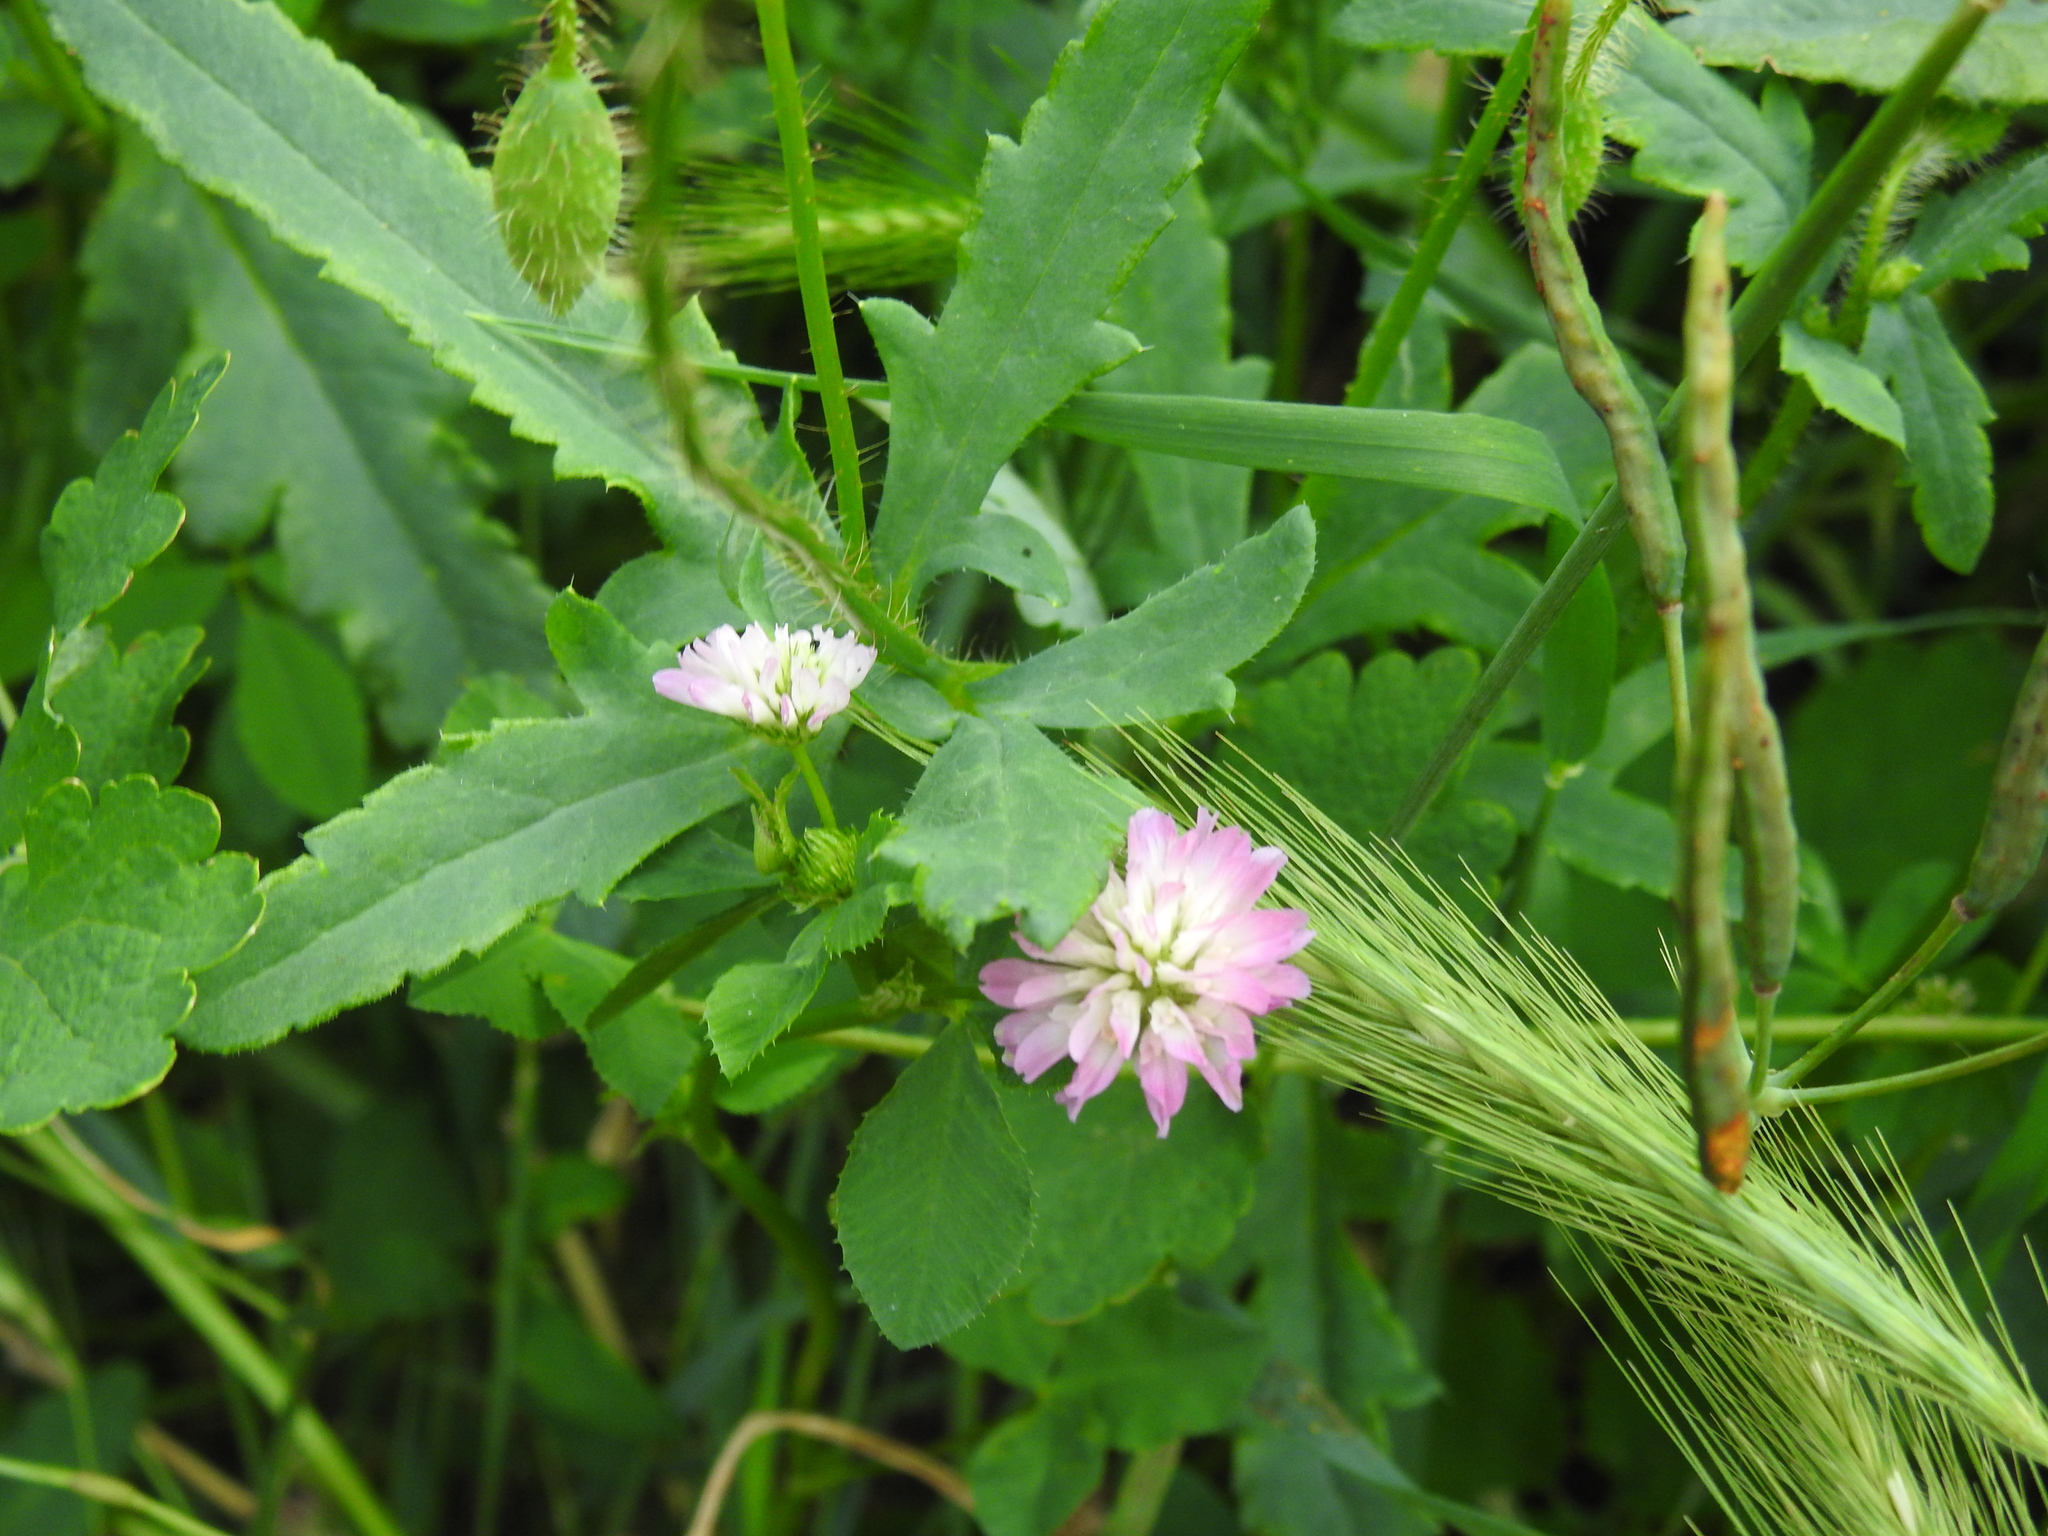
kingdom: Plantae
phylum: Tracheophyta
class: Magnoliopsida
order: Fabales
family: Fabaceae
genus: Trifolium
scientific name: Trifolium resupinatum
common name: Reversed clover
